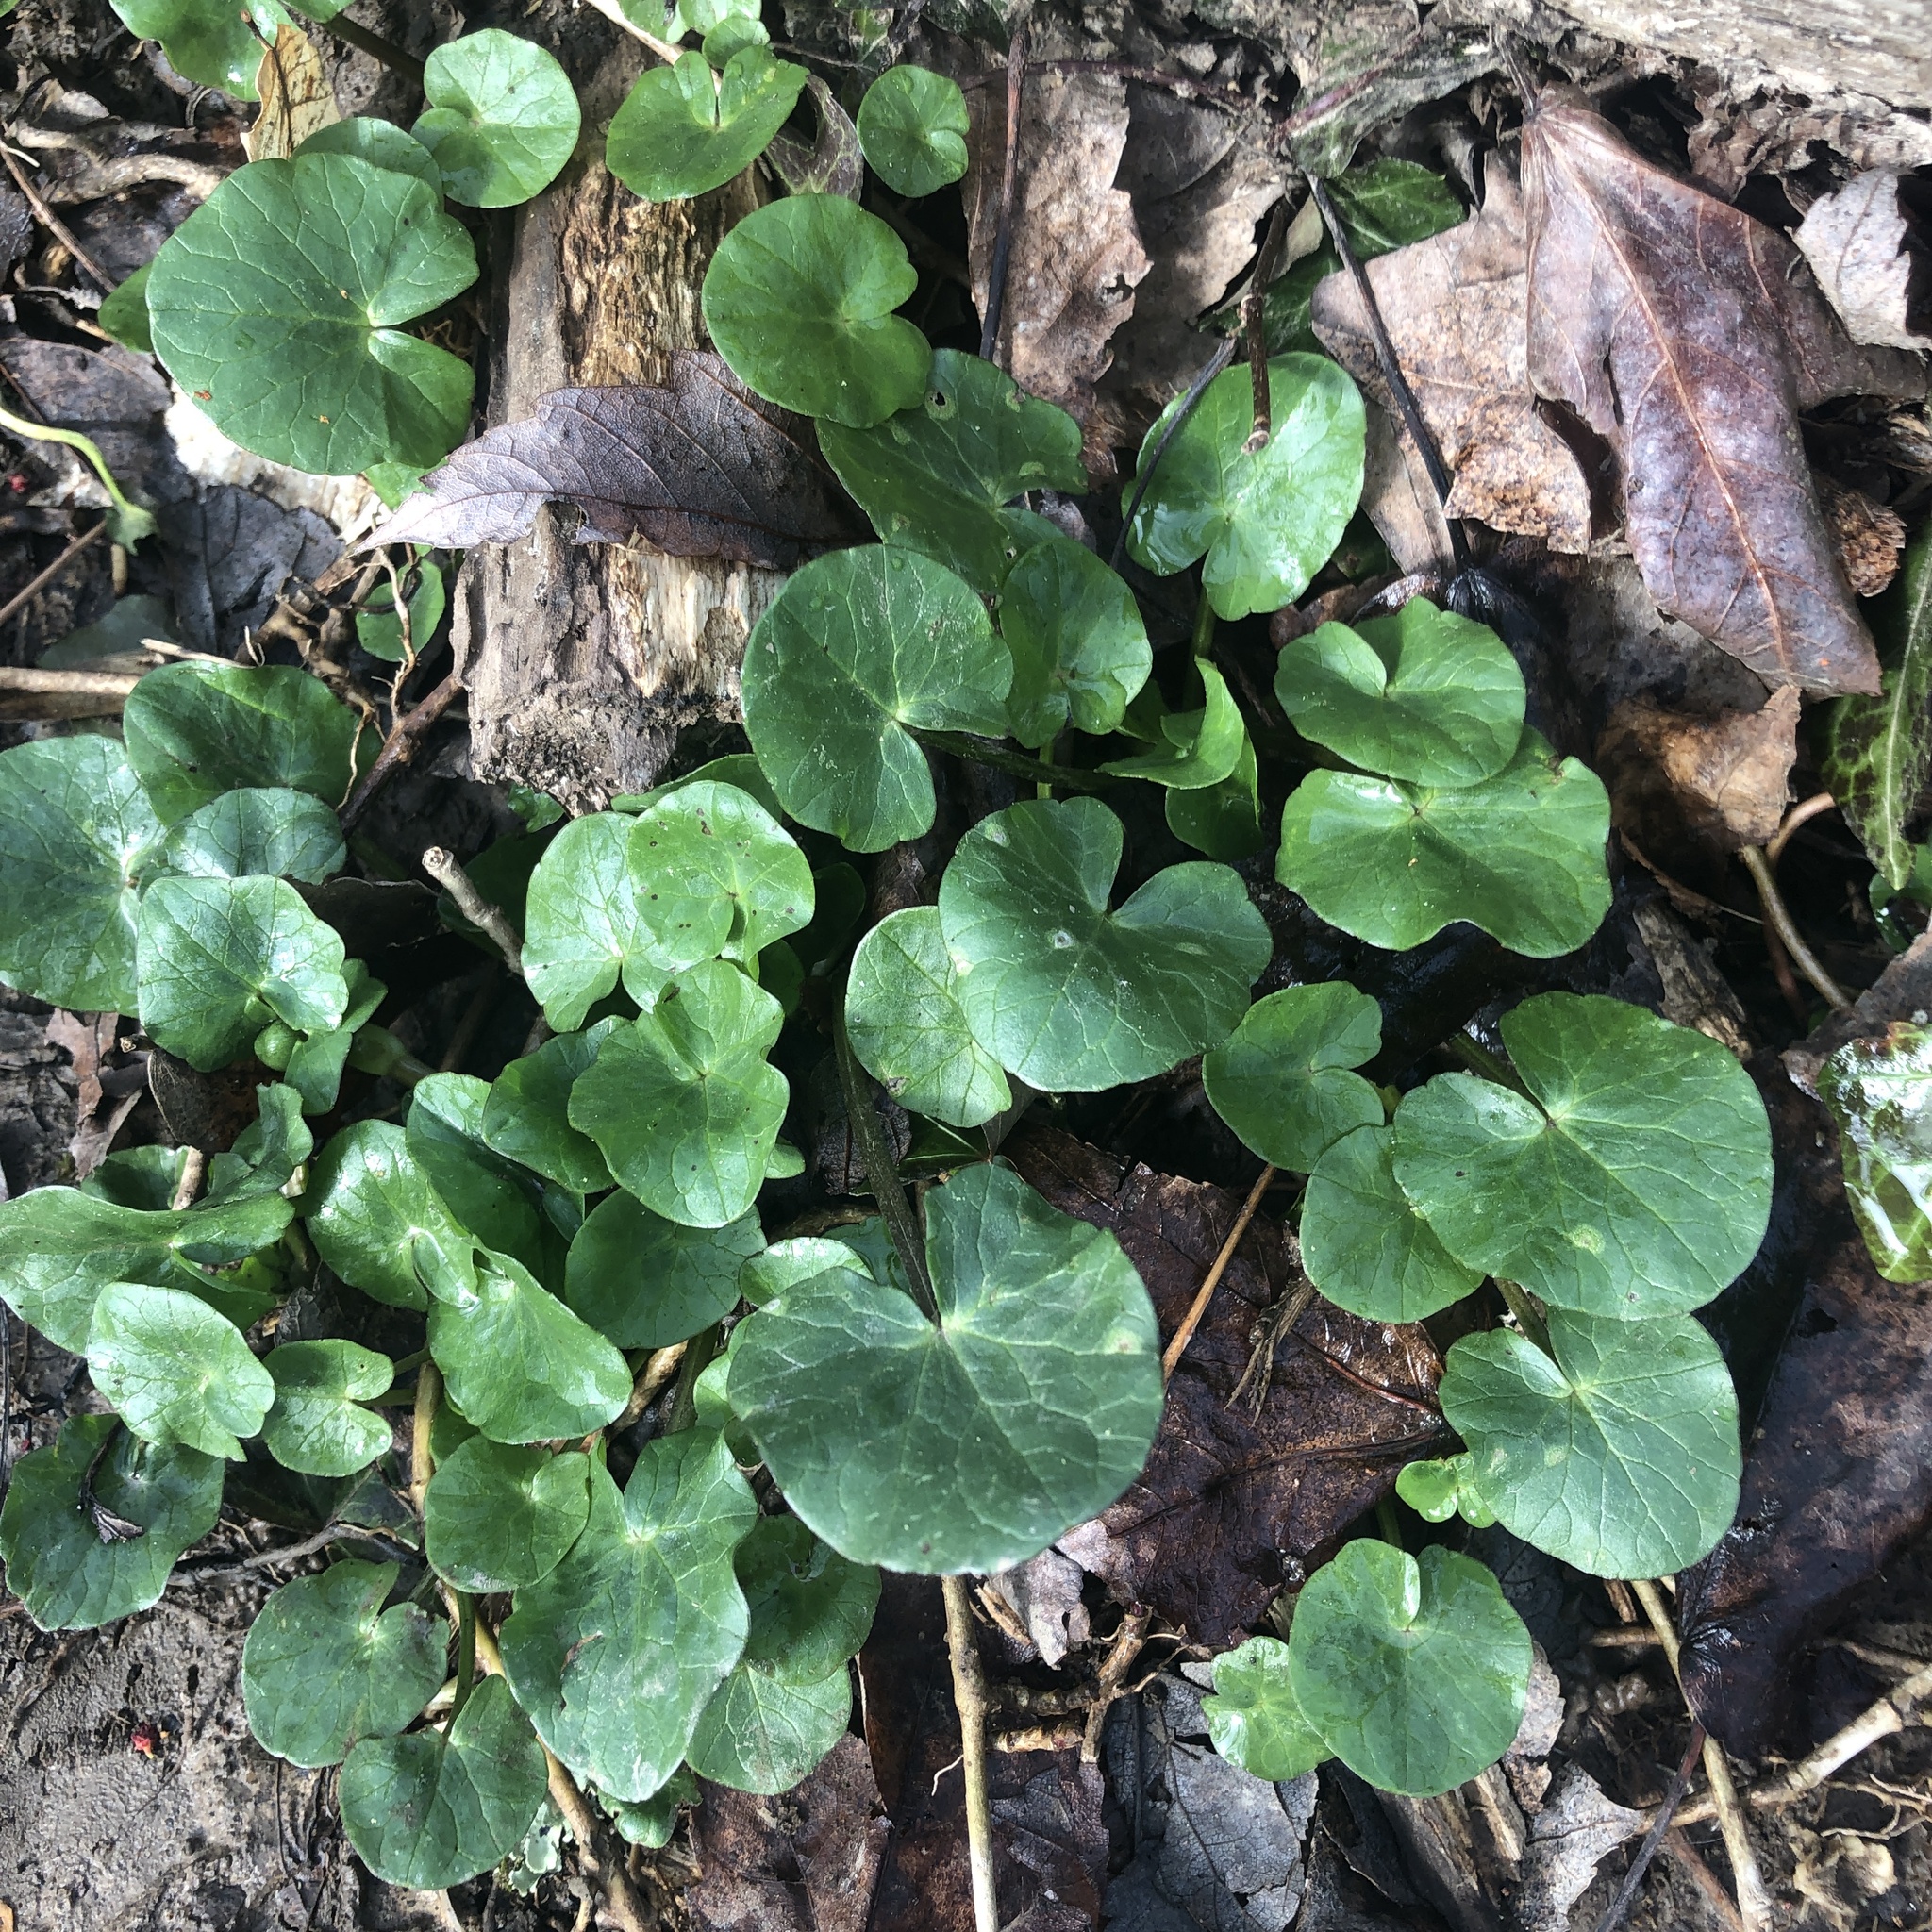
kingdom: Plantae
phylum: Tracheophyta
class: Magnoliopsida
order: Ranunculales
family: Ranunculaceae
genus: Ficaria
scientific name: Ficaria verna
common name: Lesser celandine
